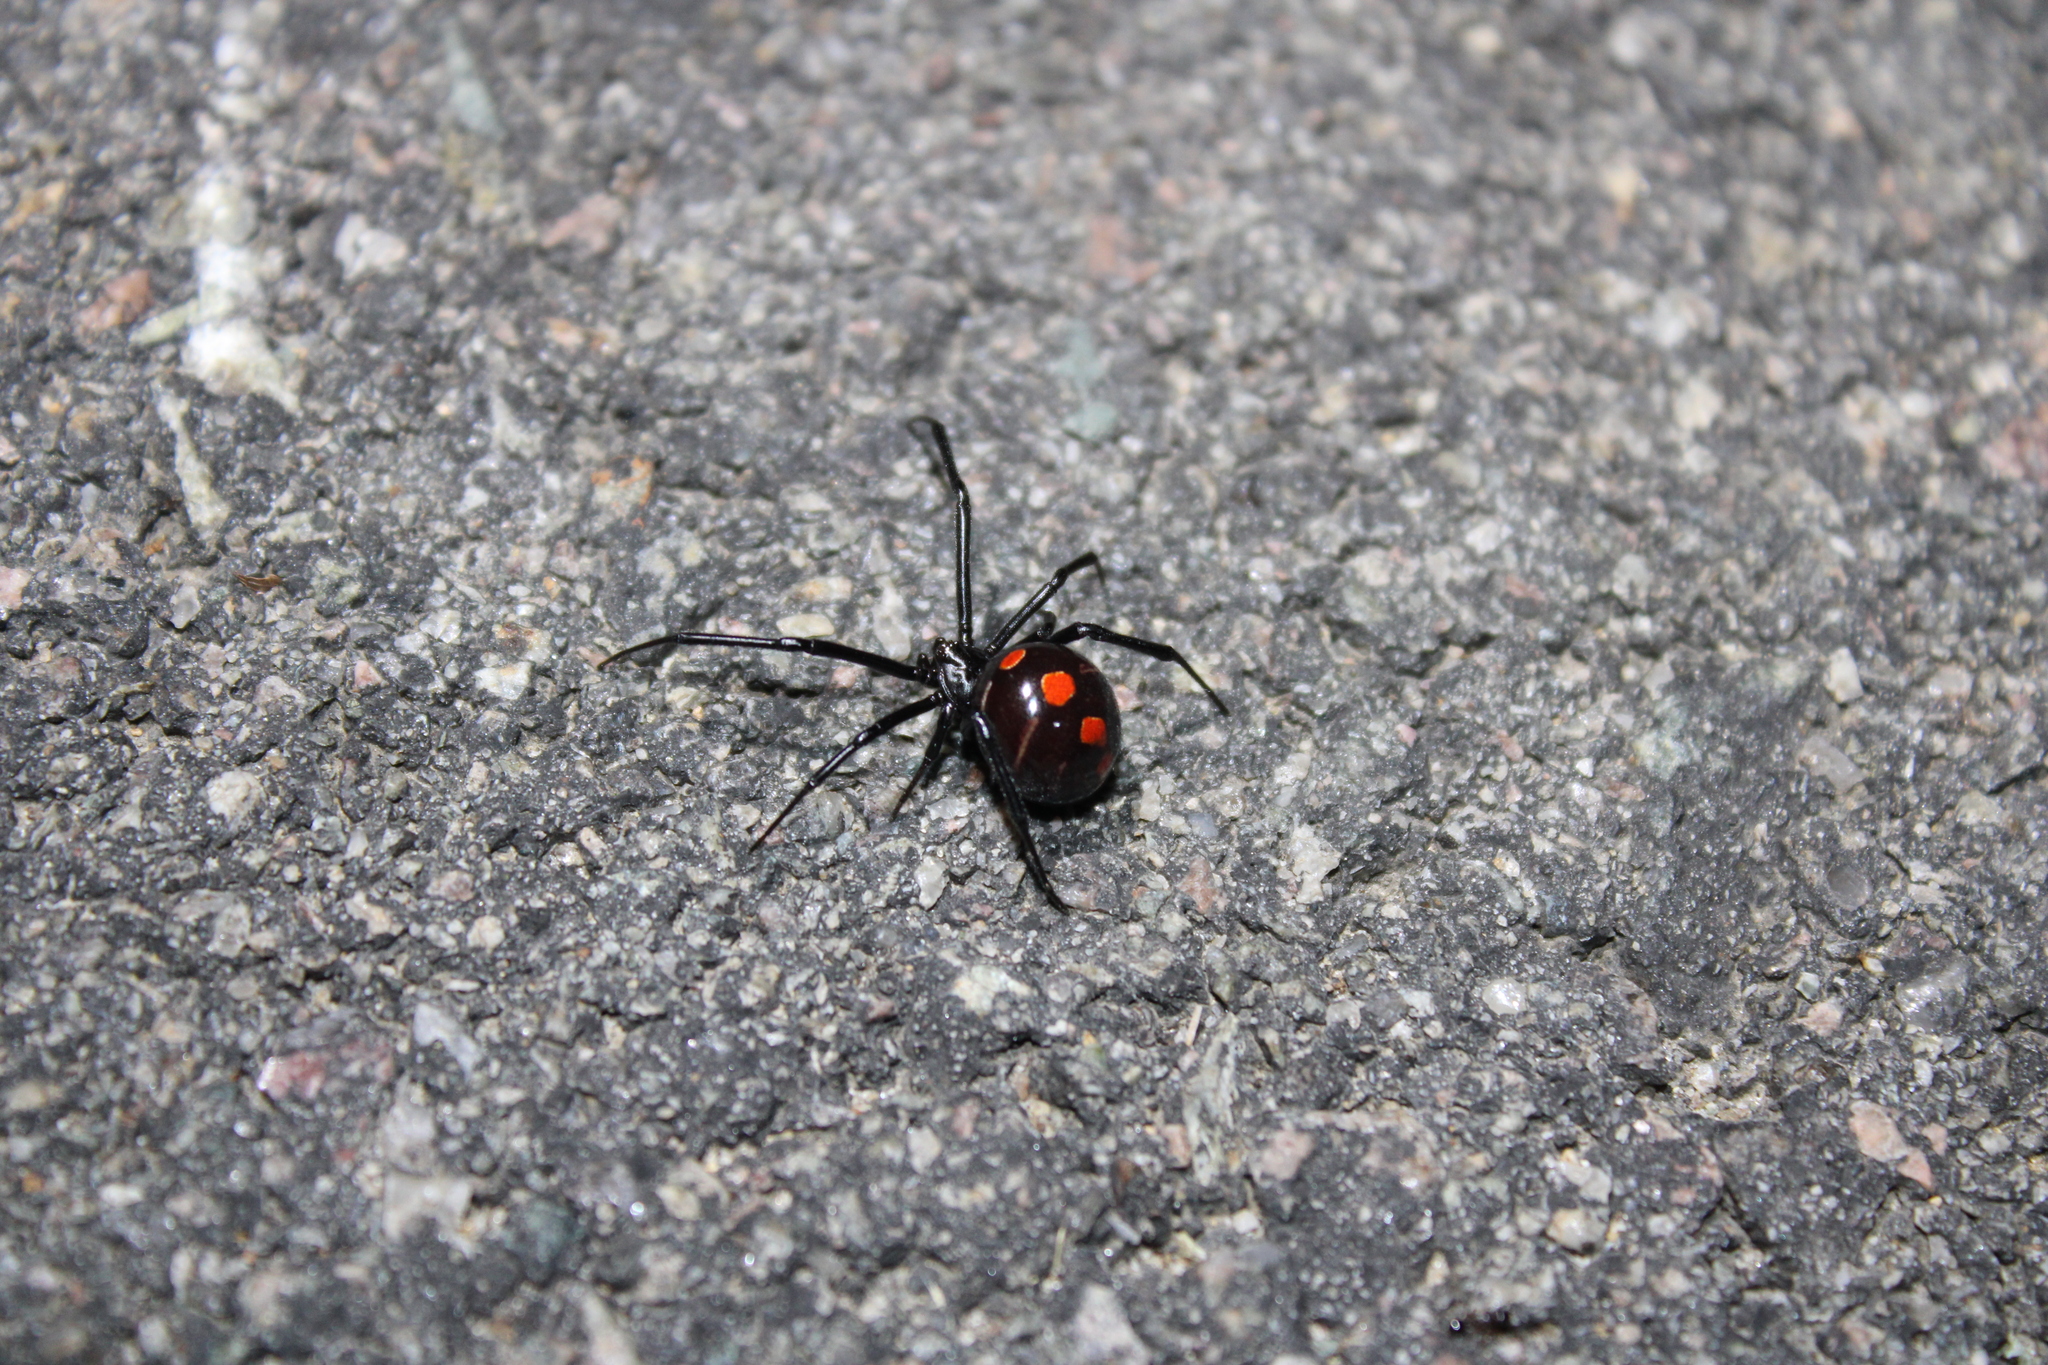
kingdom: Animalia
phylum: Arthropoda
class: Arachnida
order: Araneae
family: Theridiidae
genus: Latrodectus
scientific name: Latrodectus variolus
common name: Northern black widow
